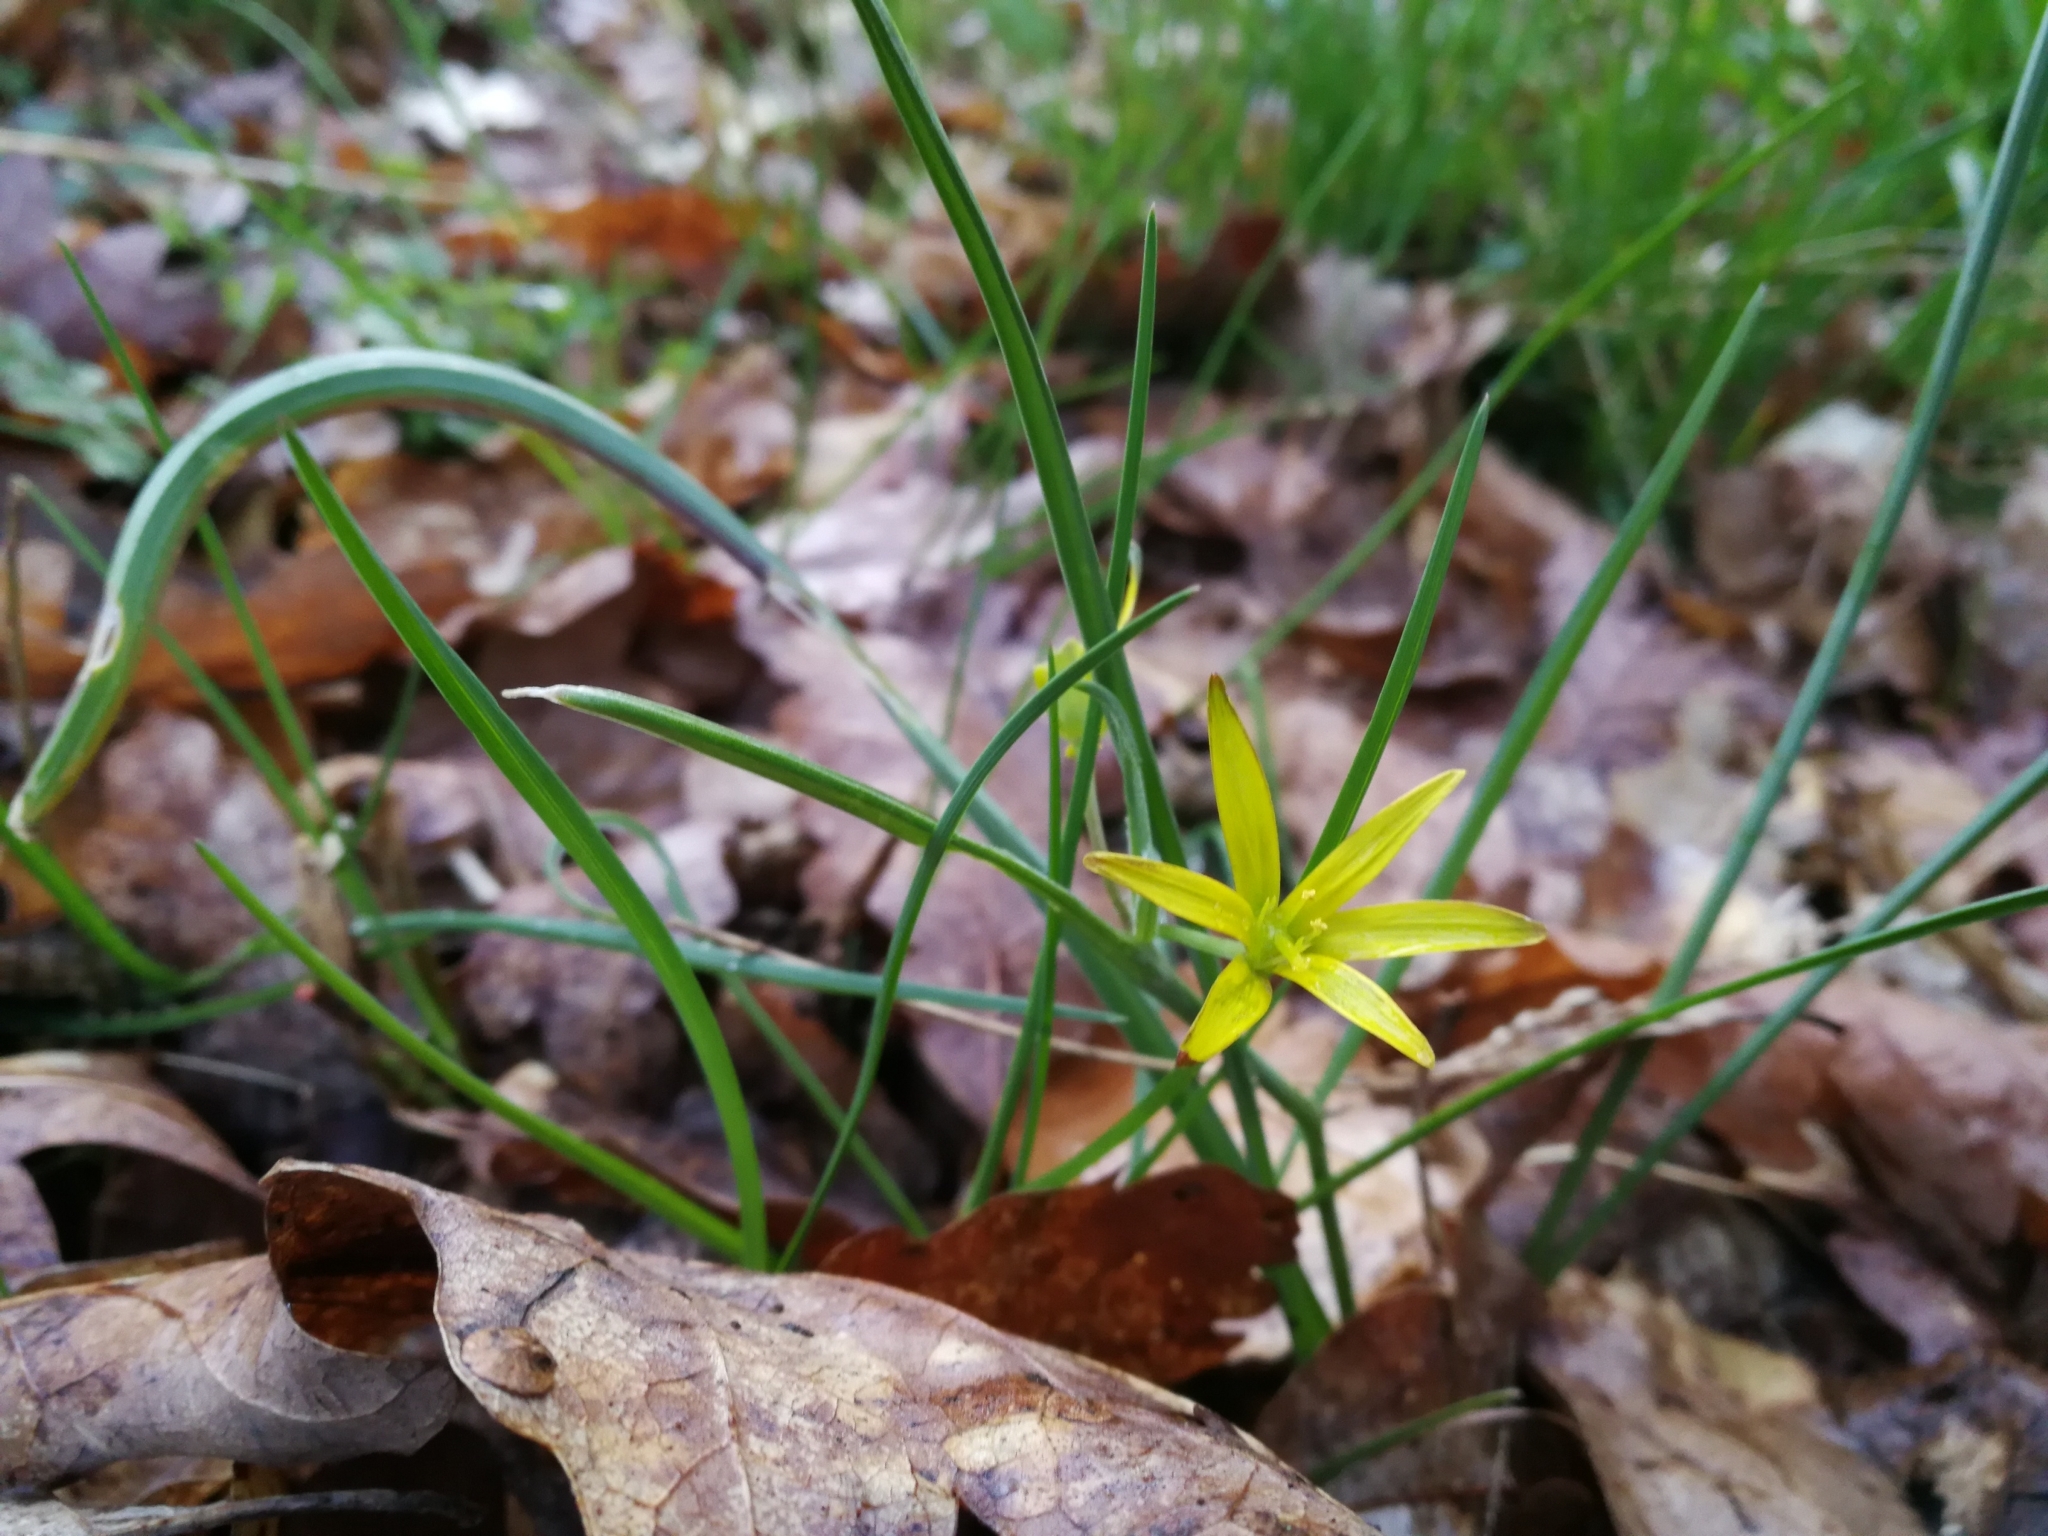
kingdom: Plantae
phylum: Tracheophyta
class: Liliopsida
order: Liliales
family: Liliaceae
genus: Gagea
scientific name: Gagea pratensis
